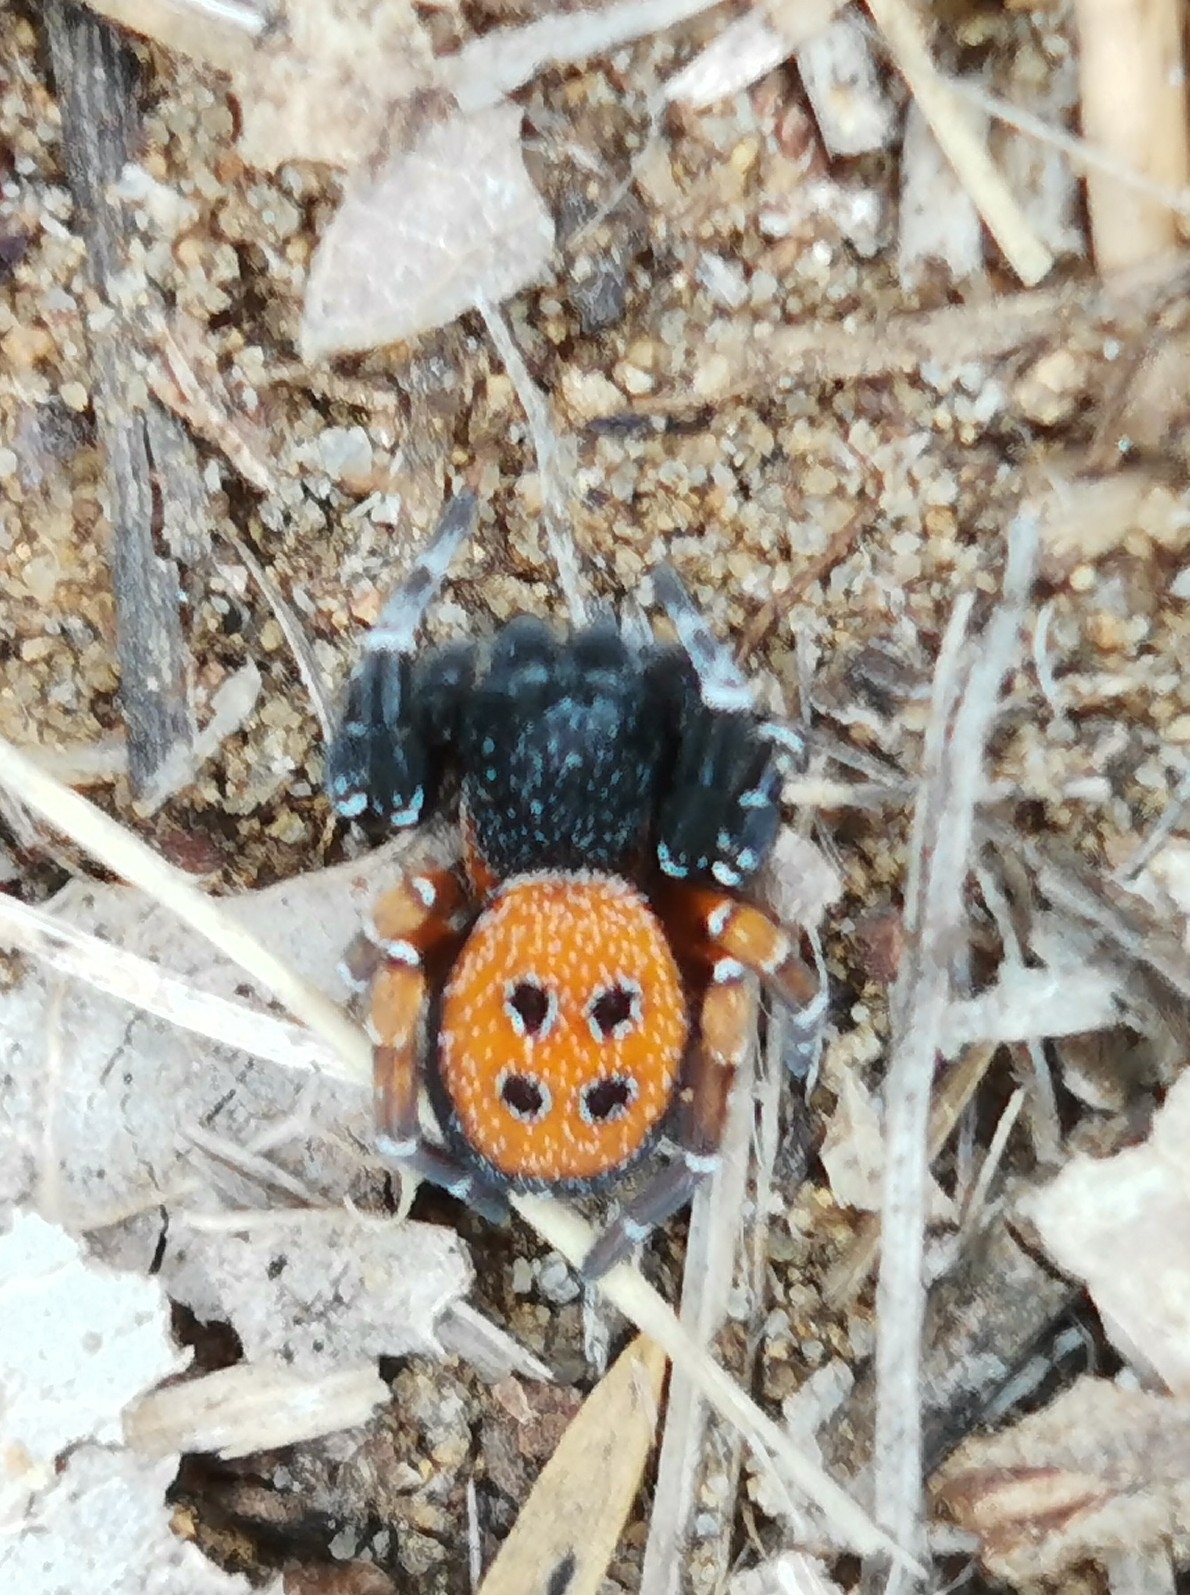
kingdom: Animalia
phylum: Arthropoda
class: Arachnida
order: Araneae
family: Eresidae
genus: Eresus
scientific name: Eresus kollari
